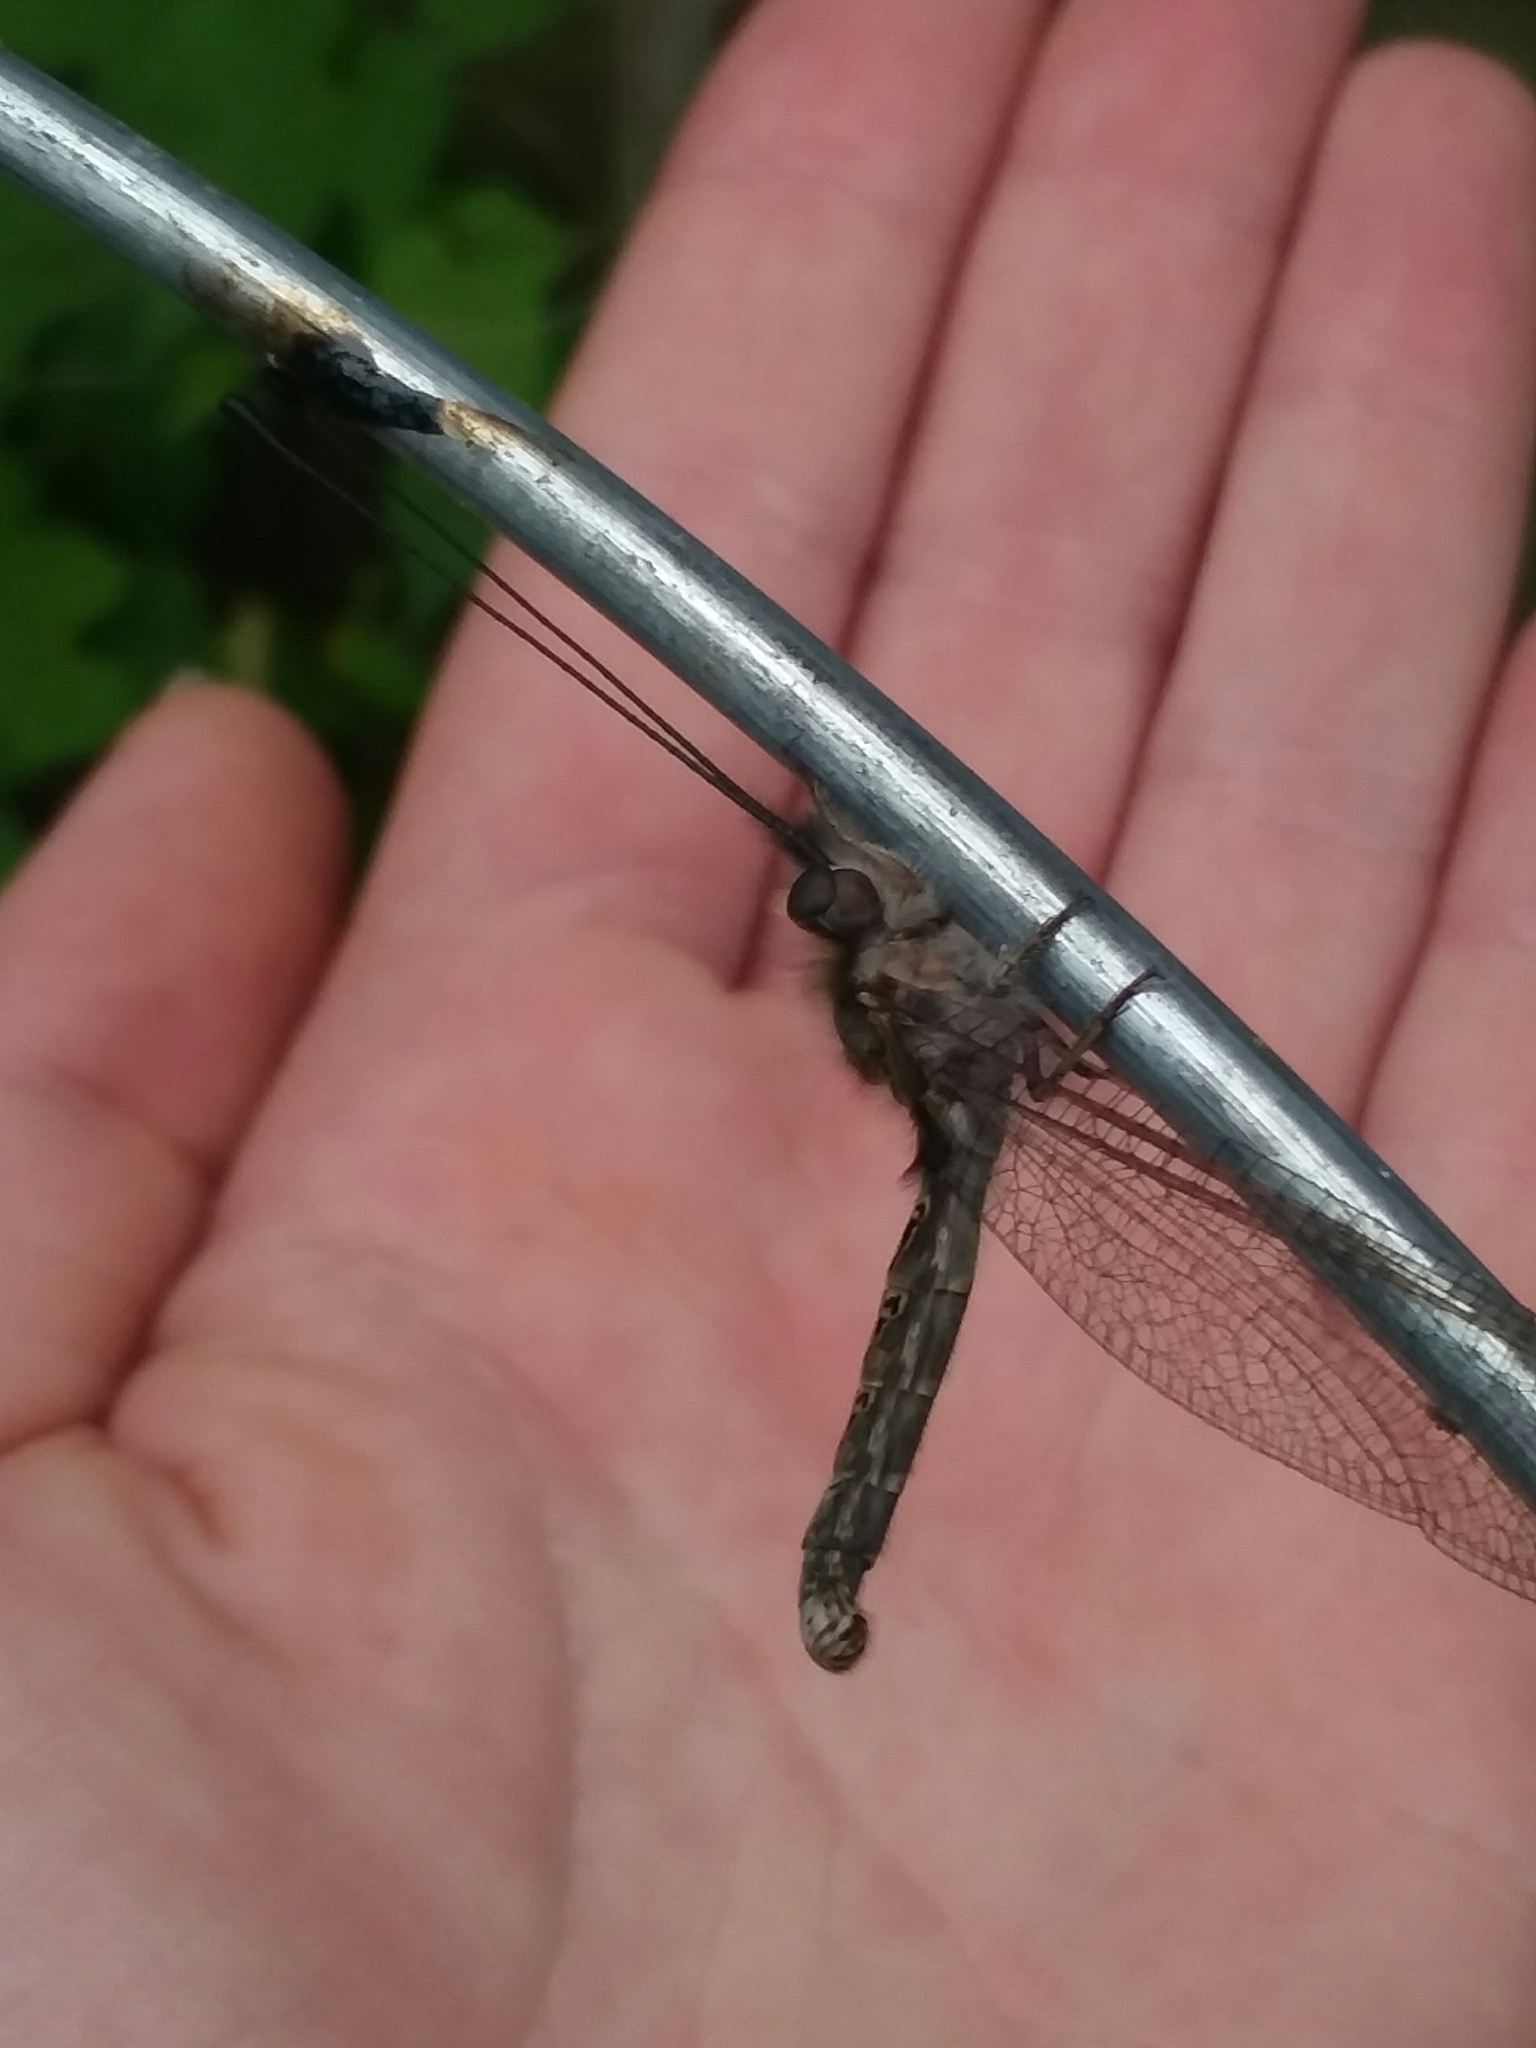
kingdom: Animalia
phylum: Arthropoda
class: Insecta
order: Neuroptera
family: Ascalaphidae
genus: Ululodes
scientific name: Ululodes macleayanus
